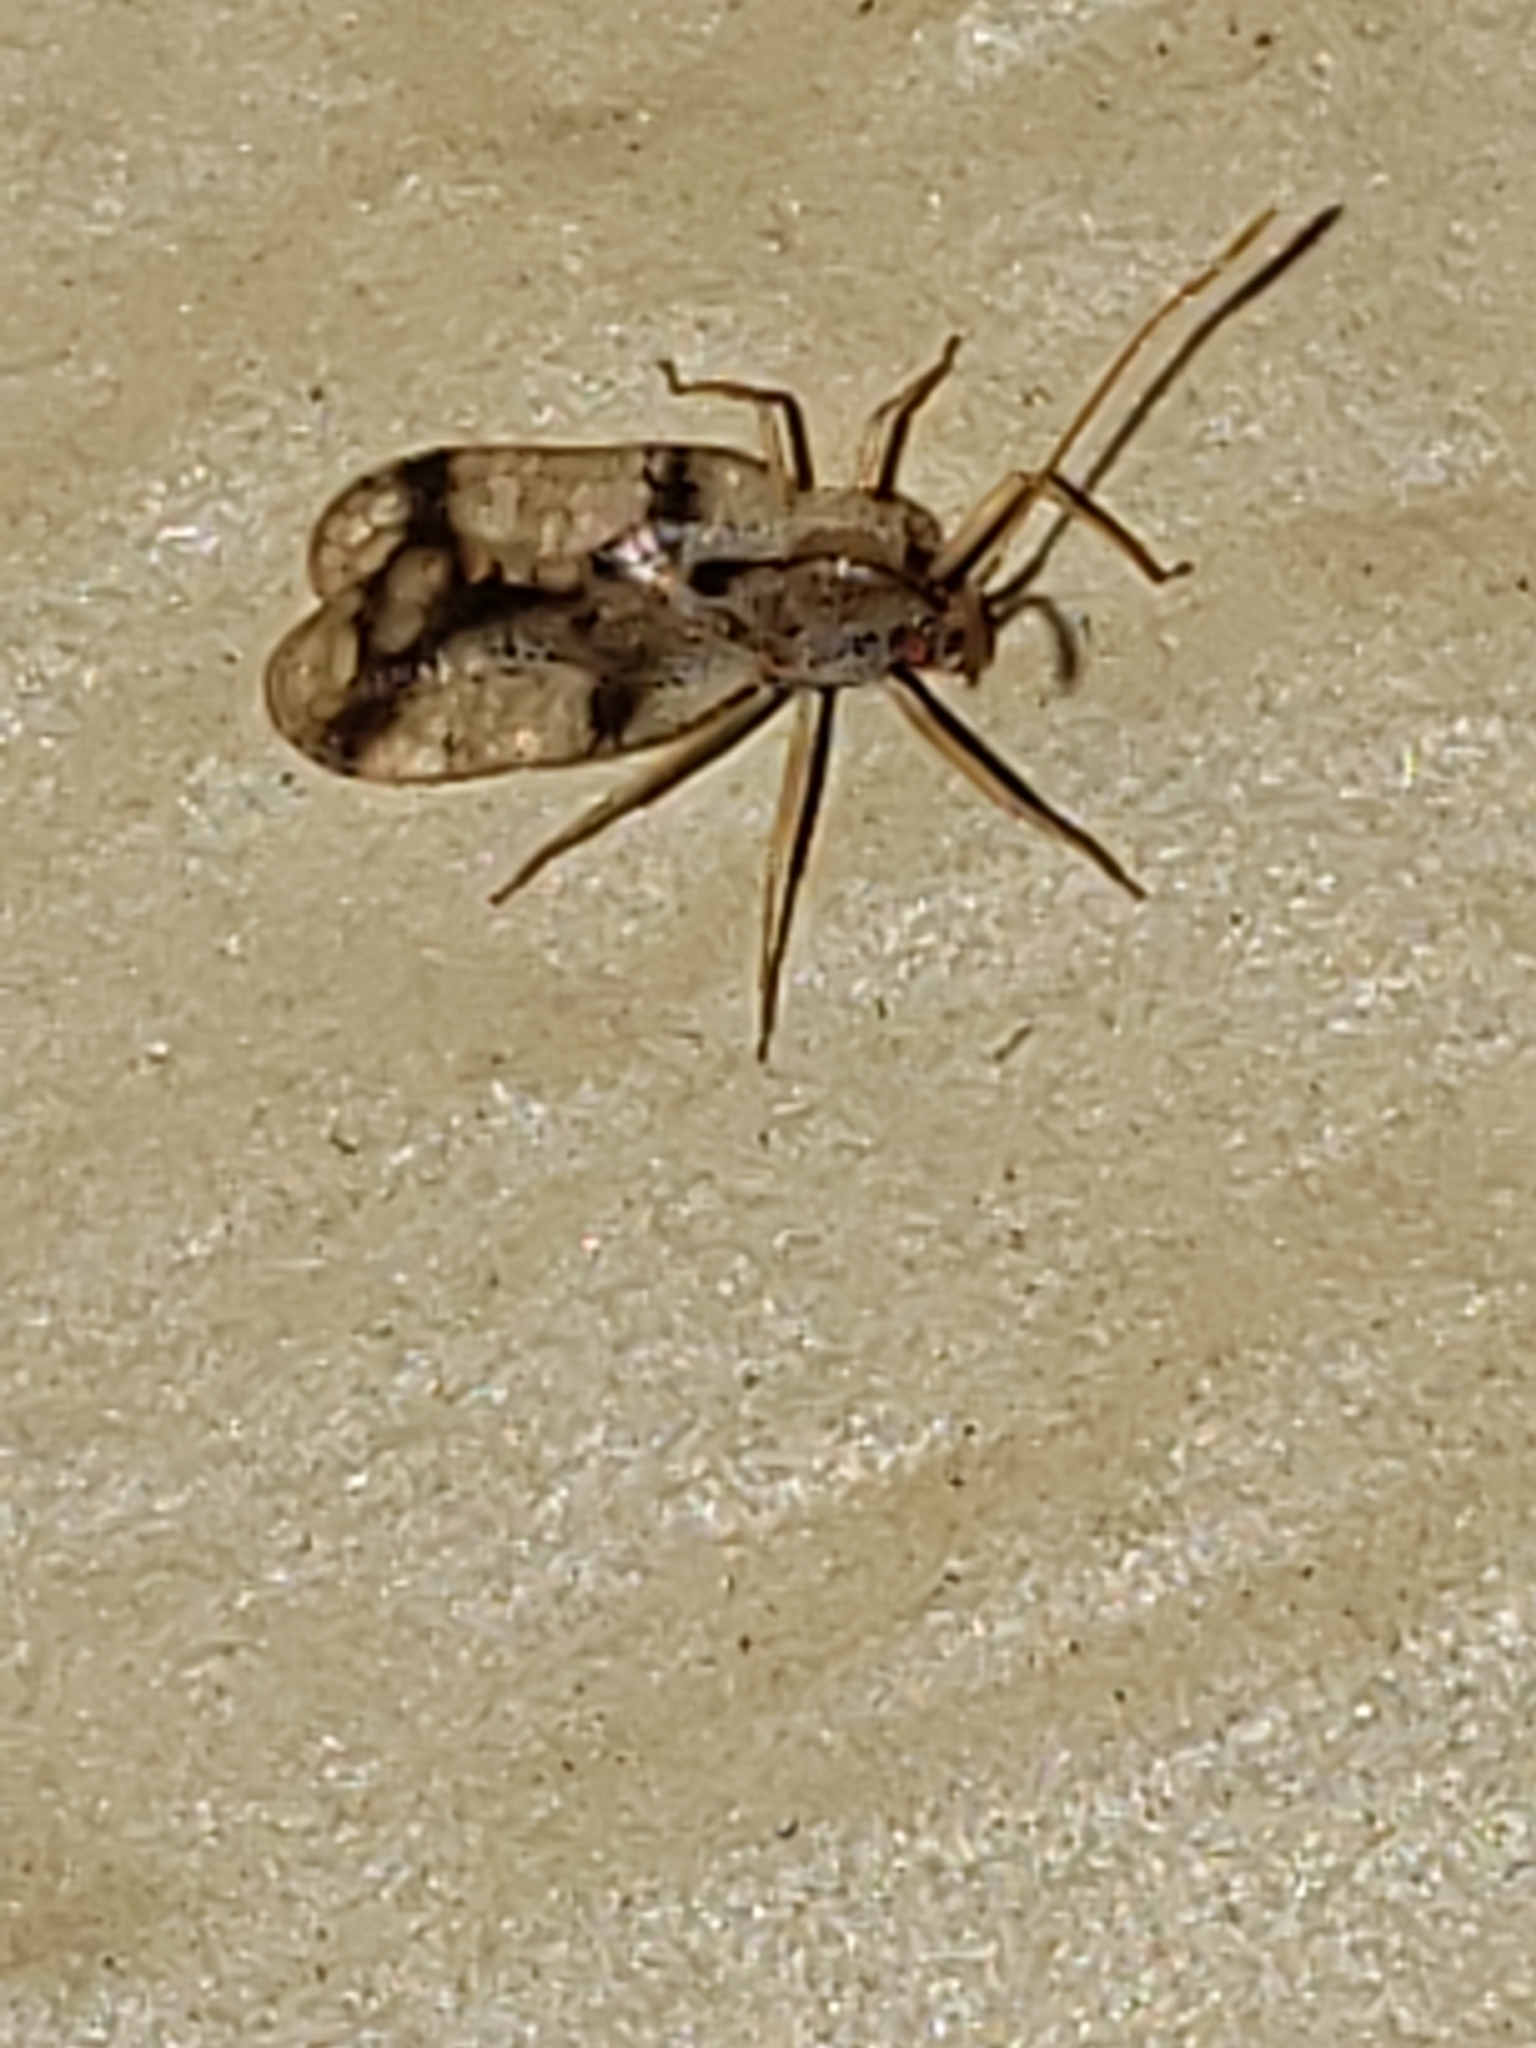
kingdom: Animalia
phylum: Arthropoda
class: Insecta
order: Hemiptera
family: Tingidae
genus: Stephanitis
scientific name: Stephanitis pyrioides
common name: Azalea lace bug
